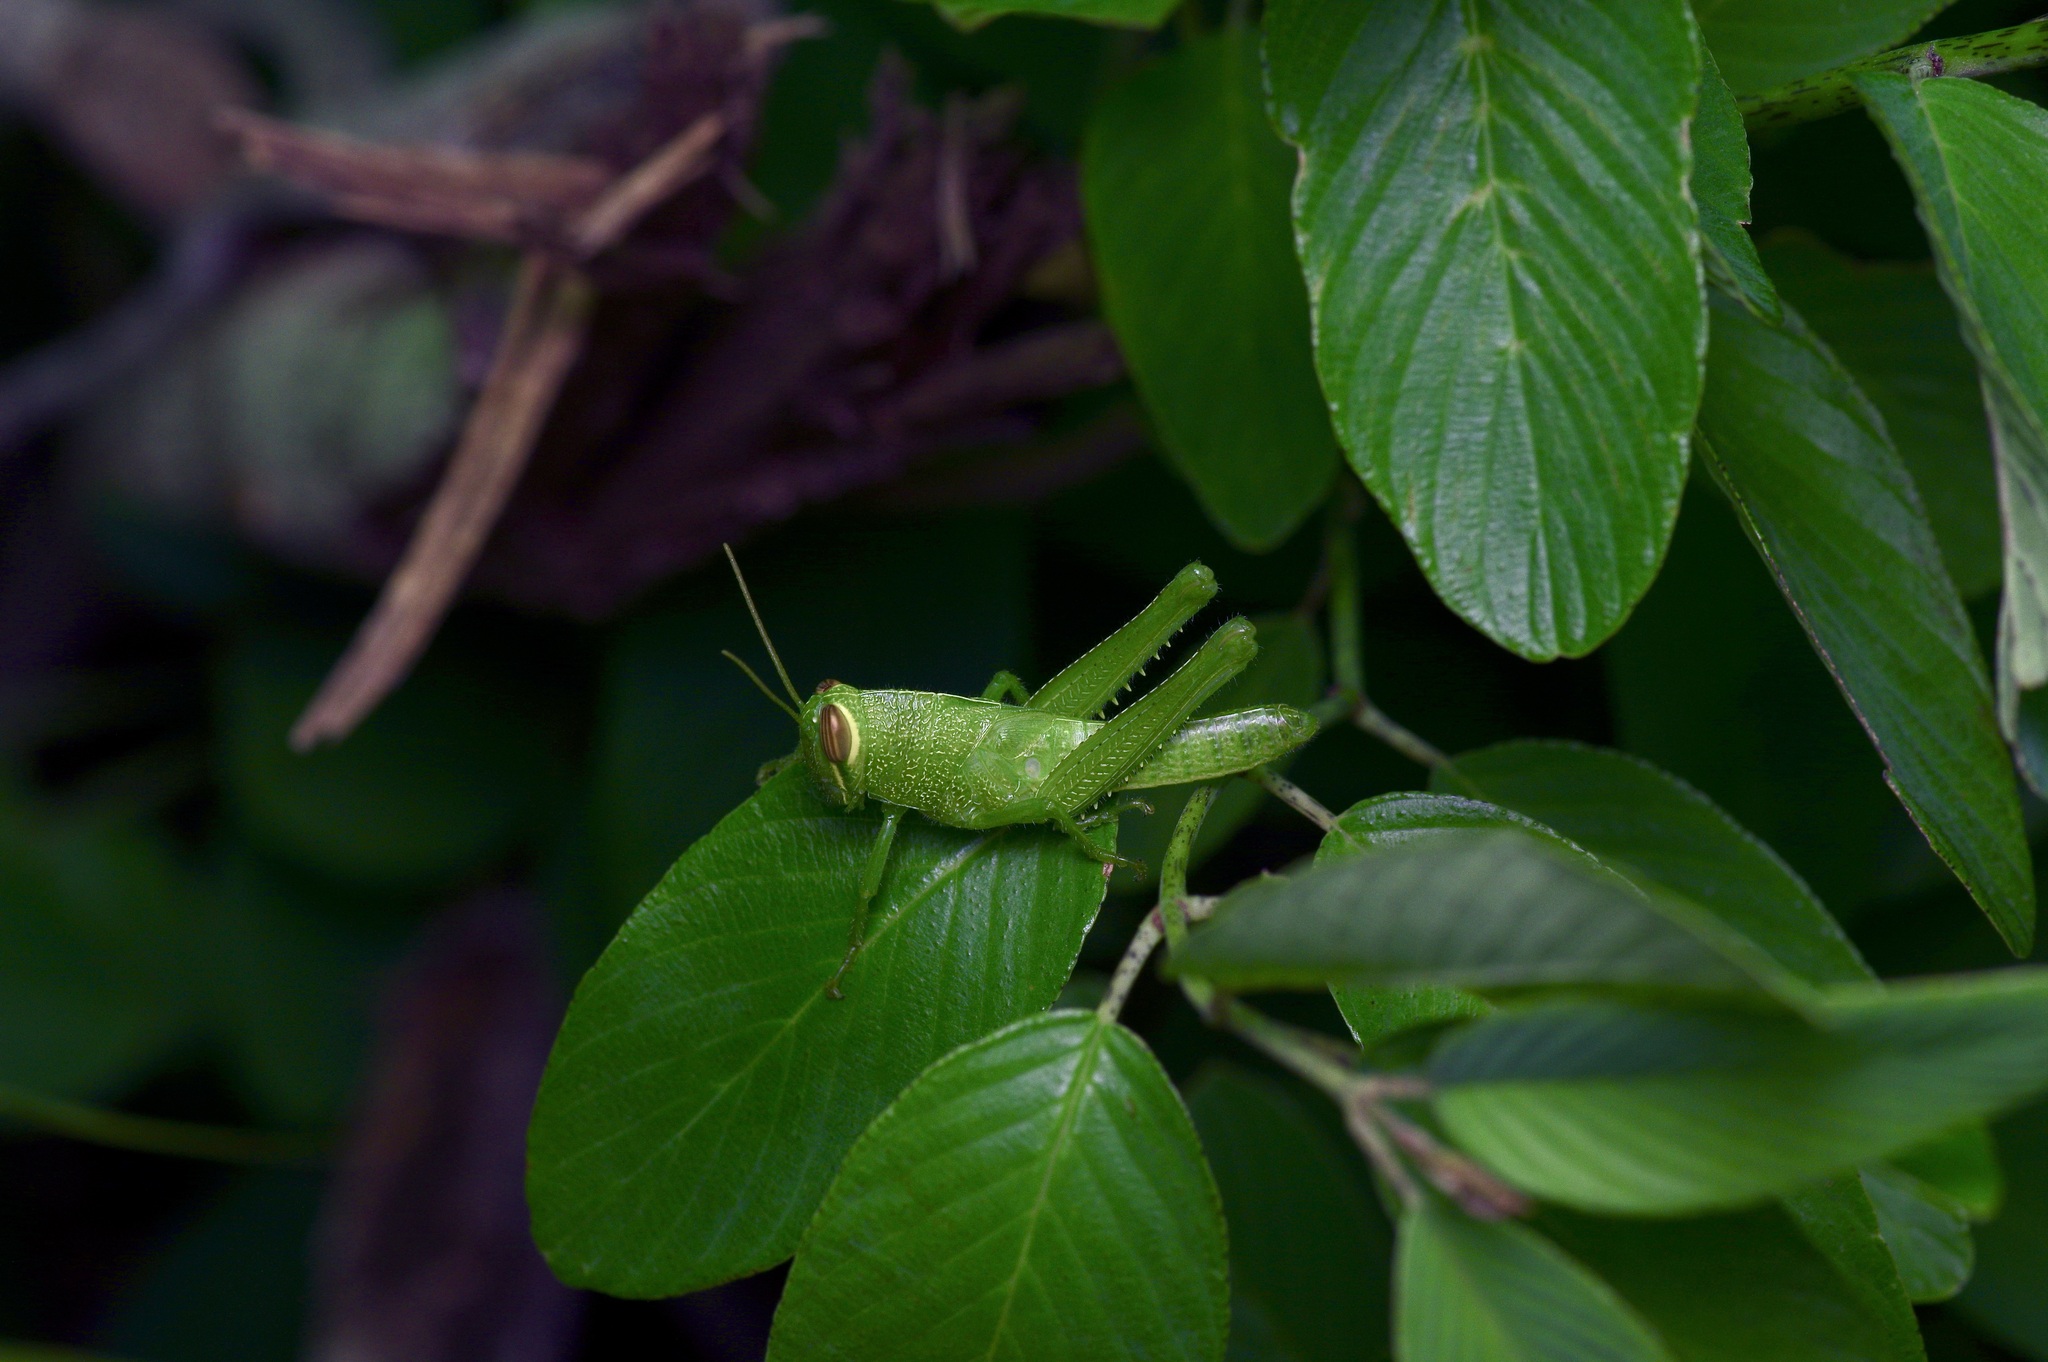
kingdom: Animalia
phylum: Arthropoda
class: Insecta
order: Orthoptera
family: Acrididae
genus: Schistocerca
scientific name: Schistocerca obscura
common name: Obscure bird grasshopper
